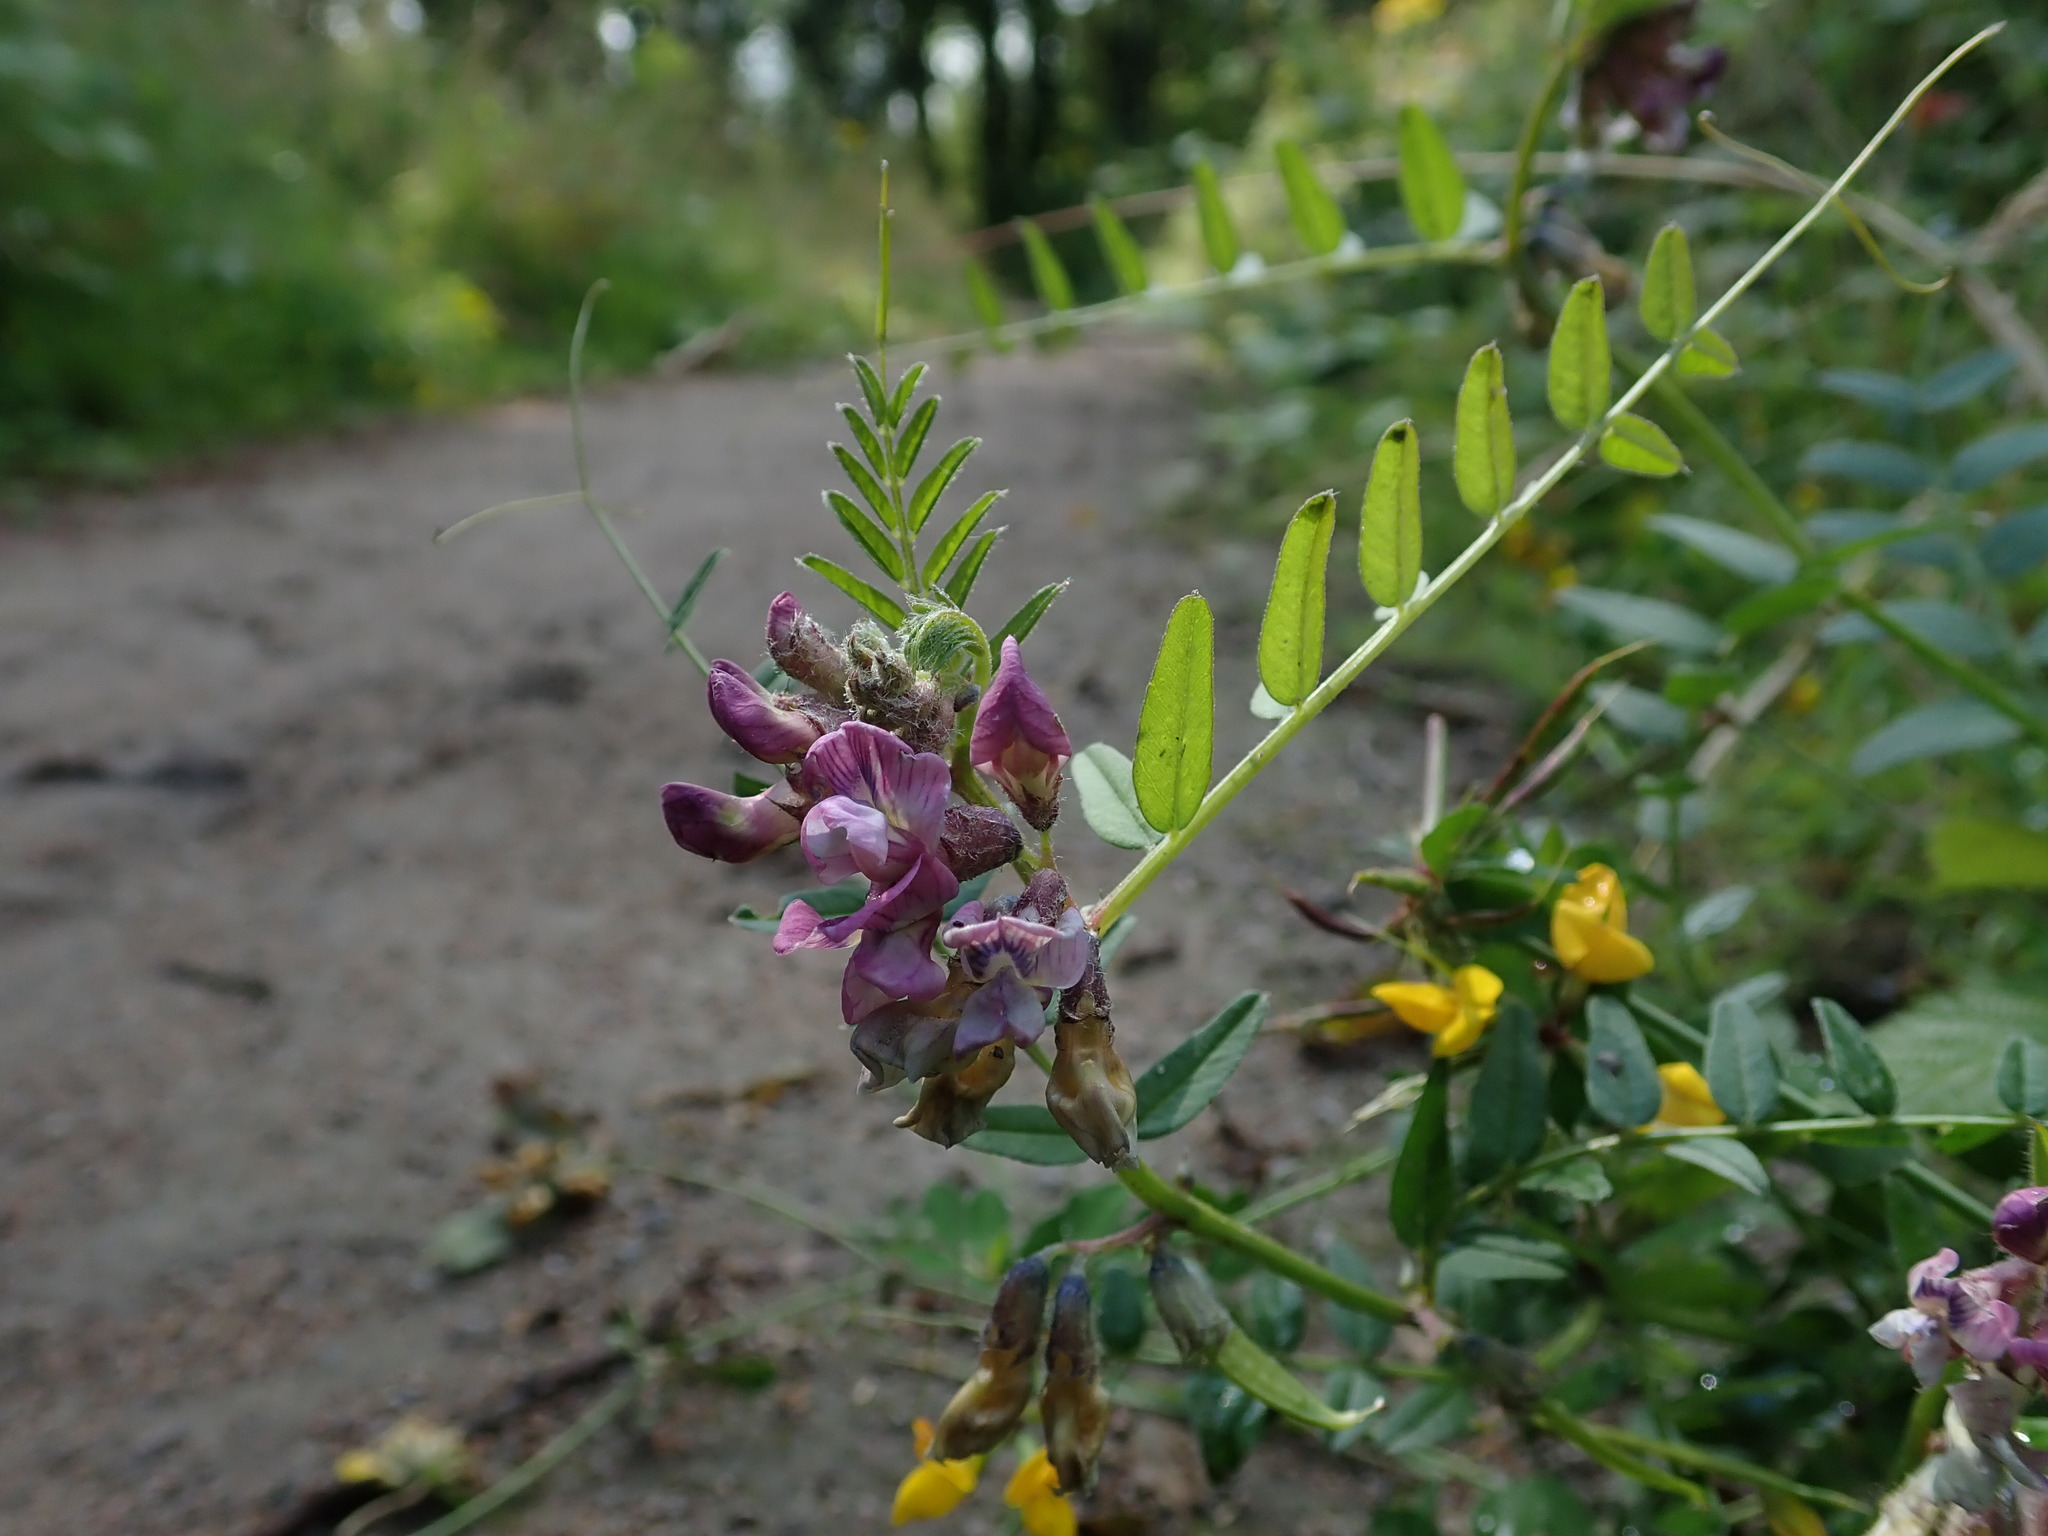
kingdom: Plantae
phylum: Tracheophyta
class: Magnoliopsida
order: Fabales
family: Fabaceae
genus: Vicia
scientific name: Vicia sepium
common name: Bush vetch
